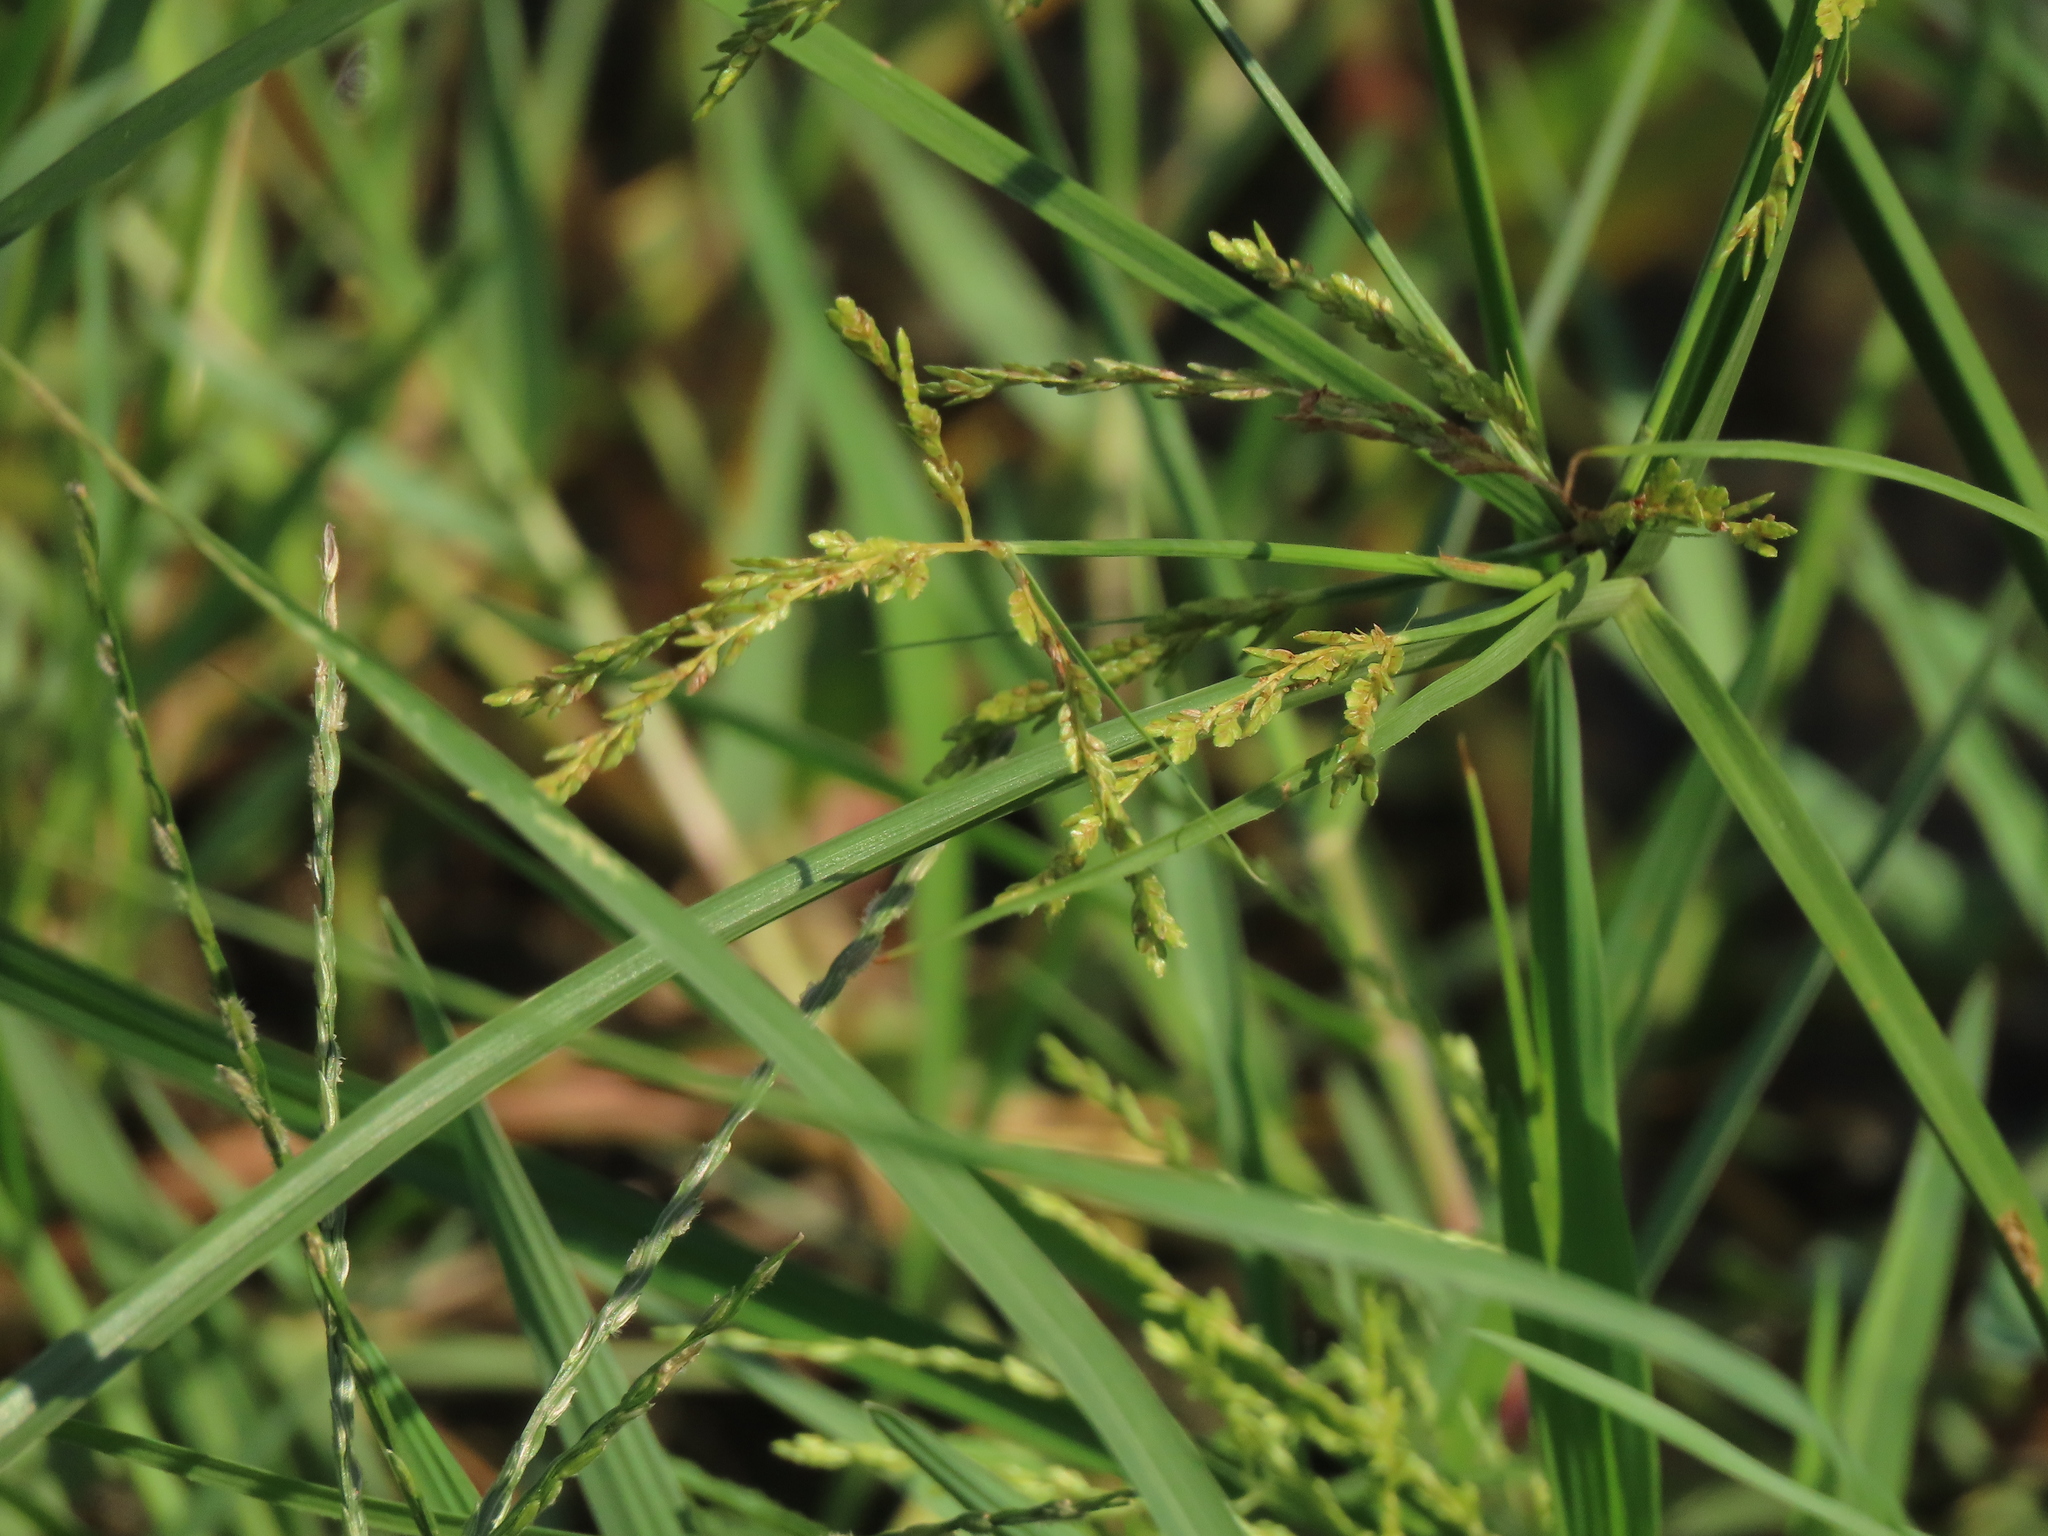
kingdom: Plantae
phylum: Tracheophyta
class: Liliopsida
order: Poales
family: Cyperaceae
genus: Cyperus
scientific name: Cyperus iria
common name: Ricefield flatsedge
